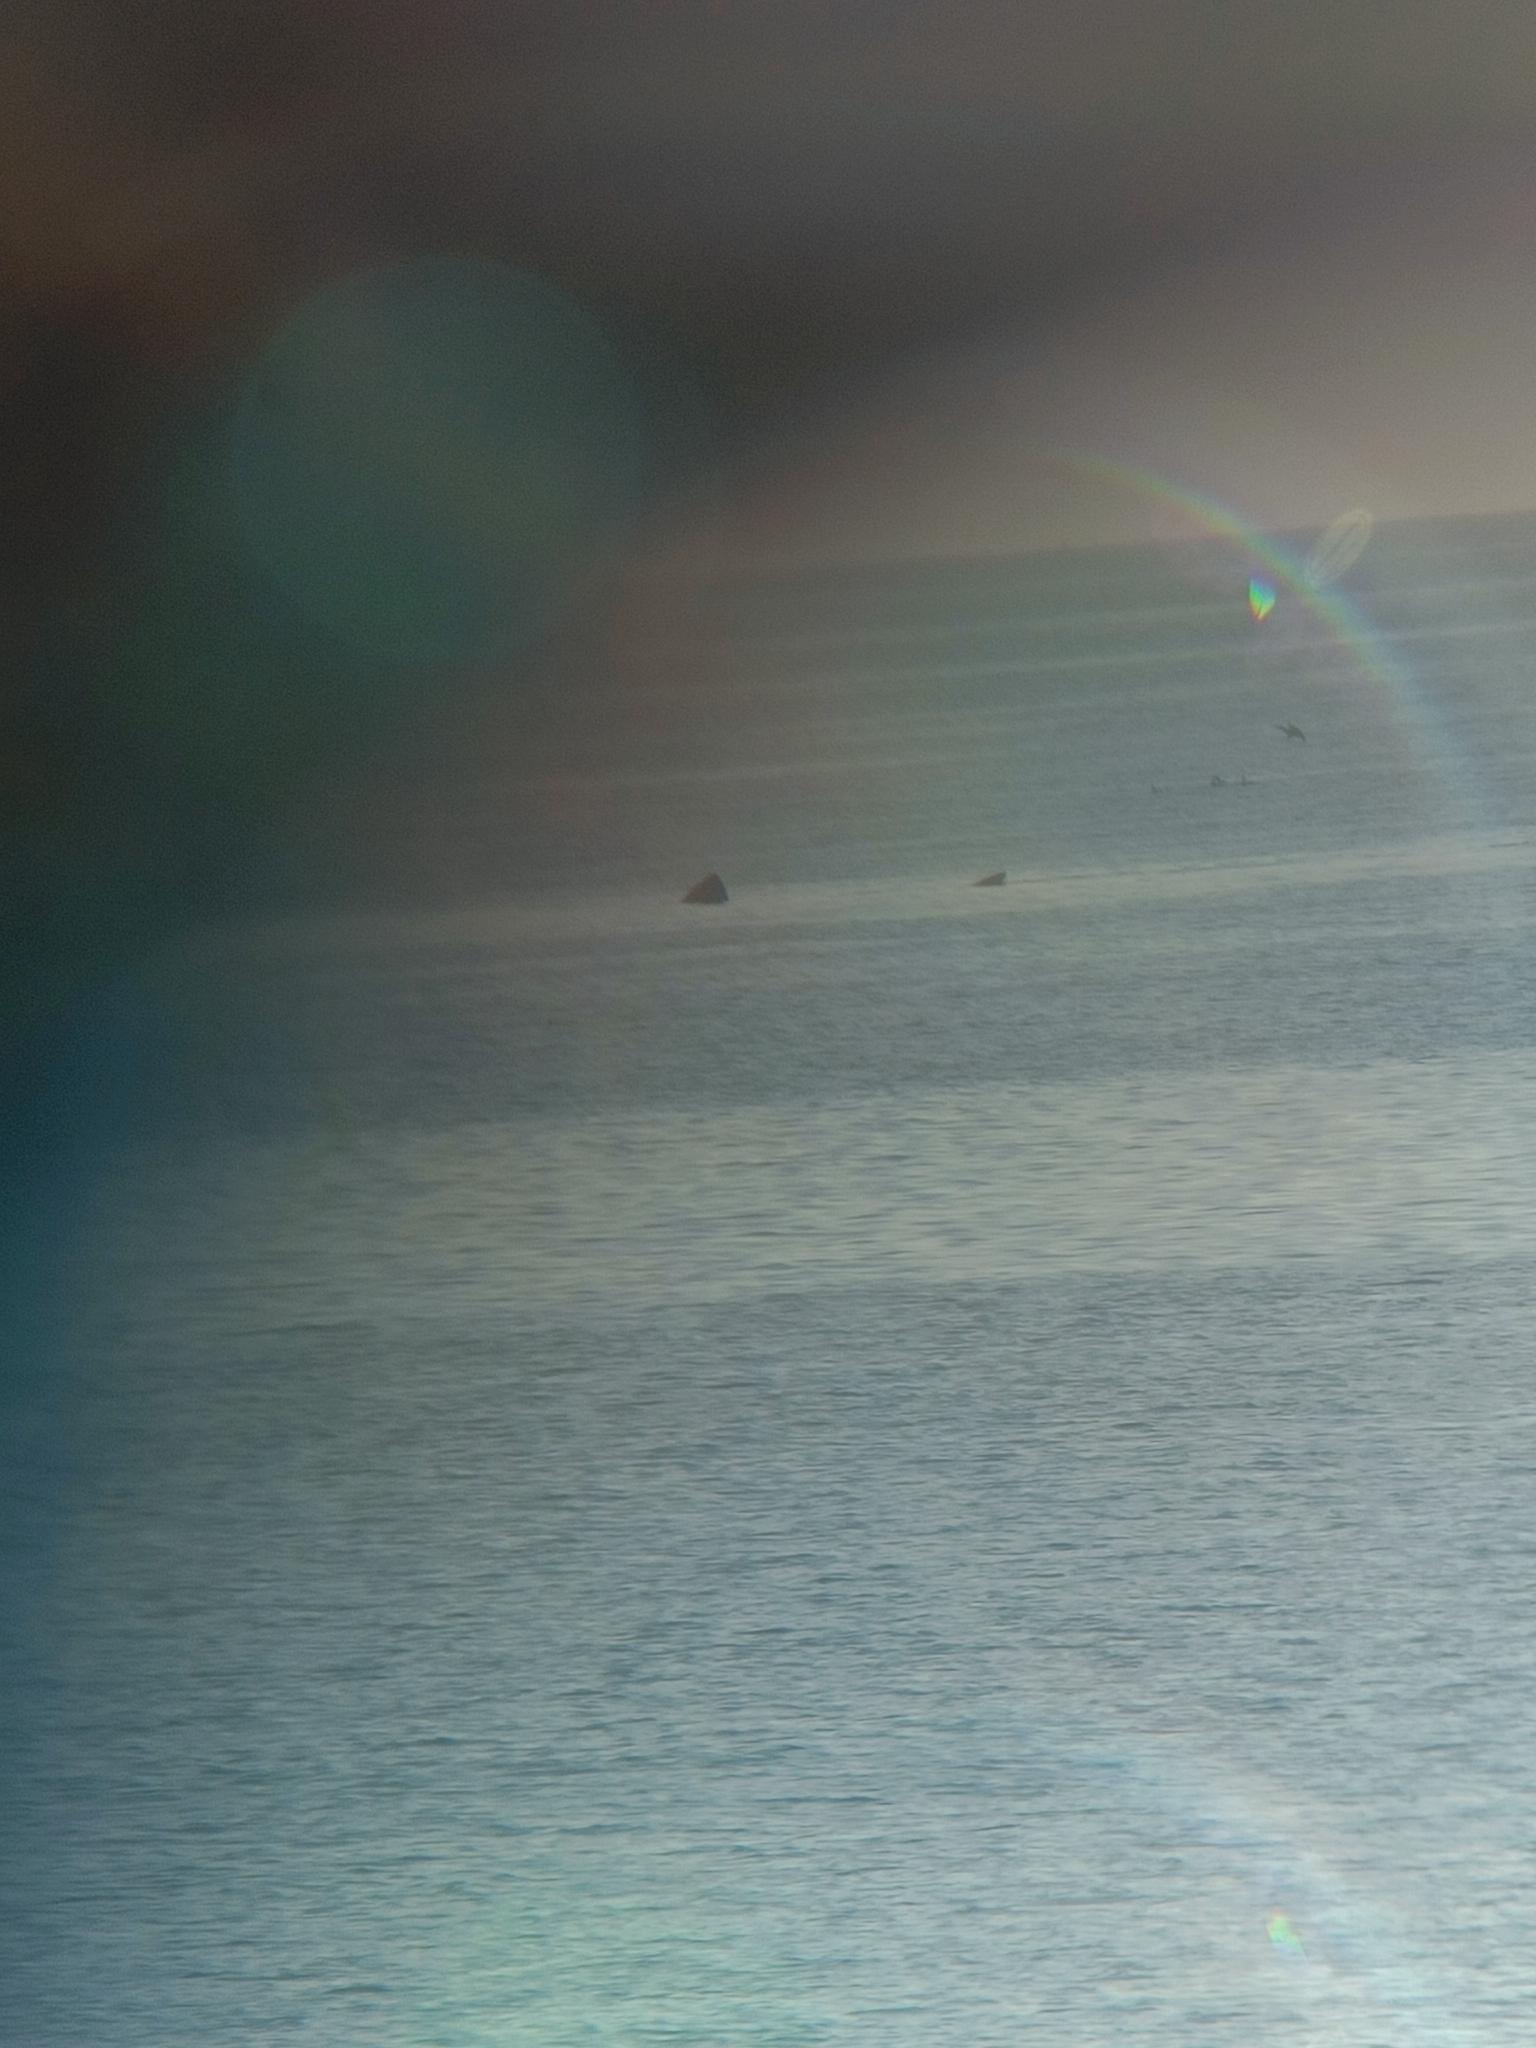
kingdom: Animalia
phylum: Chordata
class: Elasmobranchii
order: Lamniformes
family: Cetorhinidae
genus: Cetorhinus
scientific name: Cetorhinus maximus
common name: Basking shark
